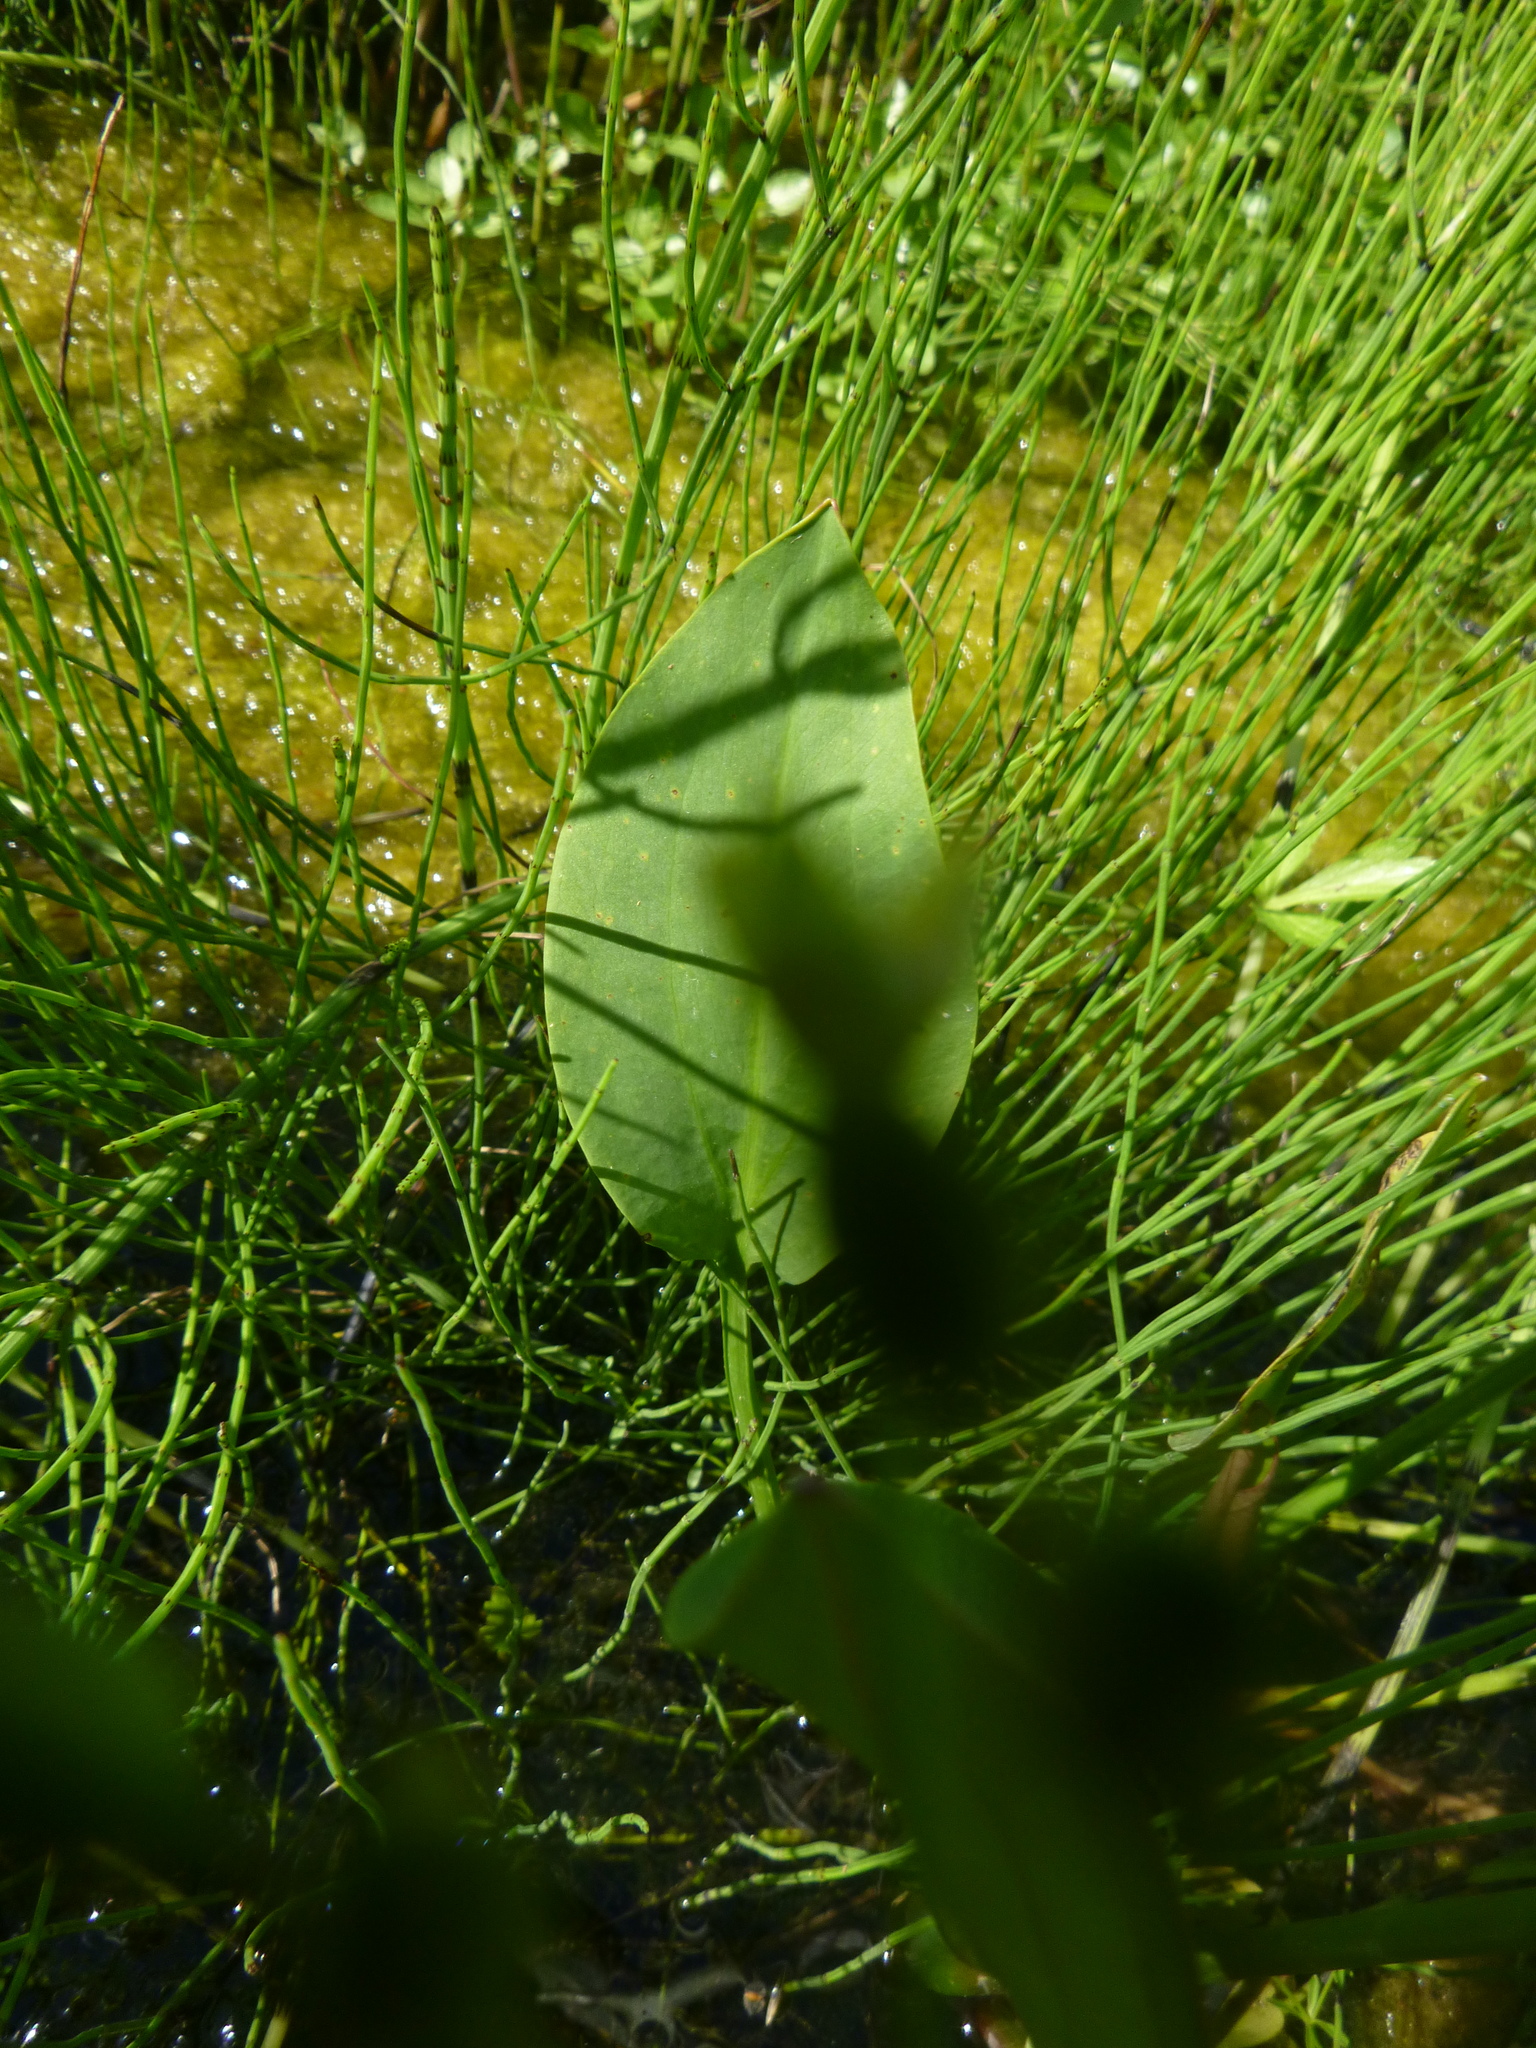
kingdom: Plantae
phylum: Tracheophyta
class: Liliopsida
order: Alismatales
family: Alismataceae
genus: Alisma
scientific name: Alisma plantago-aquatica
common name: Water-plantain
